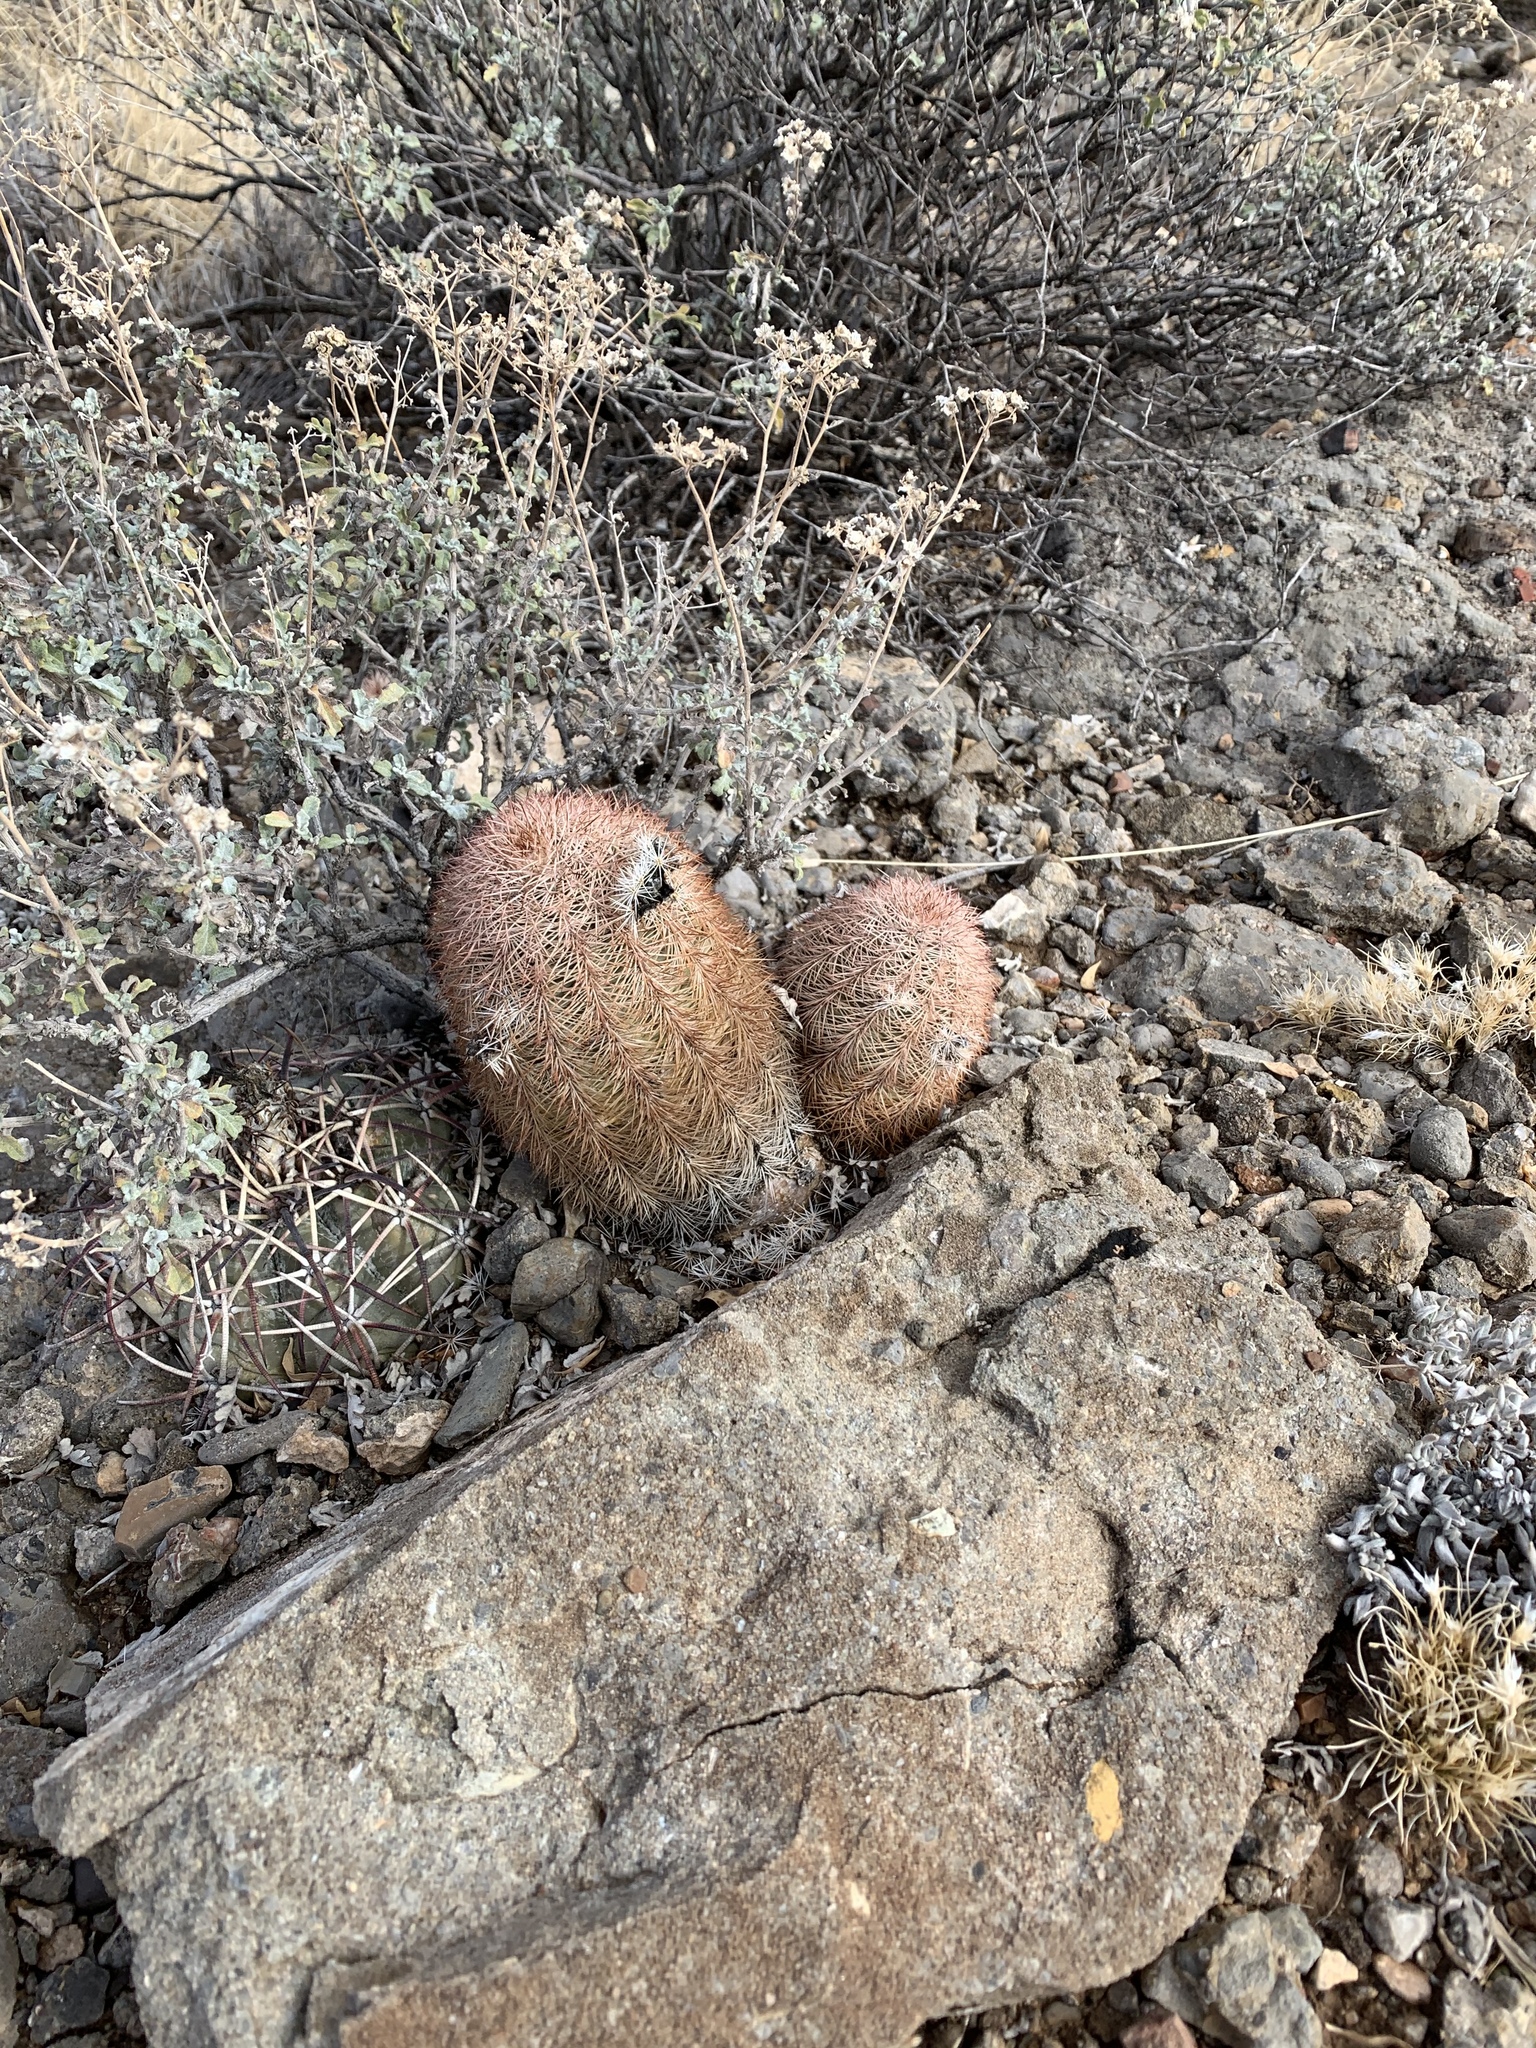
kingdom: Plantae
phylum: Tracheophyta
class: Magnoliopsida
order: Caryophyllales
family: Cactaceae
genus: Echinocereus
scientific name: Echinocereus dasyacanthus
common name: Spiny hedgehog cactus
